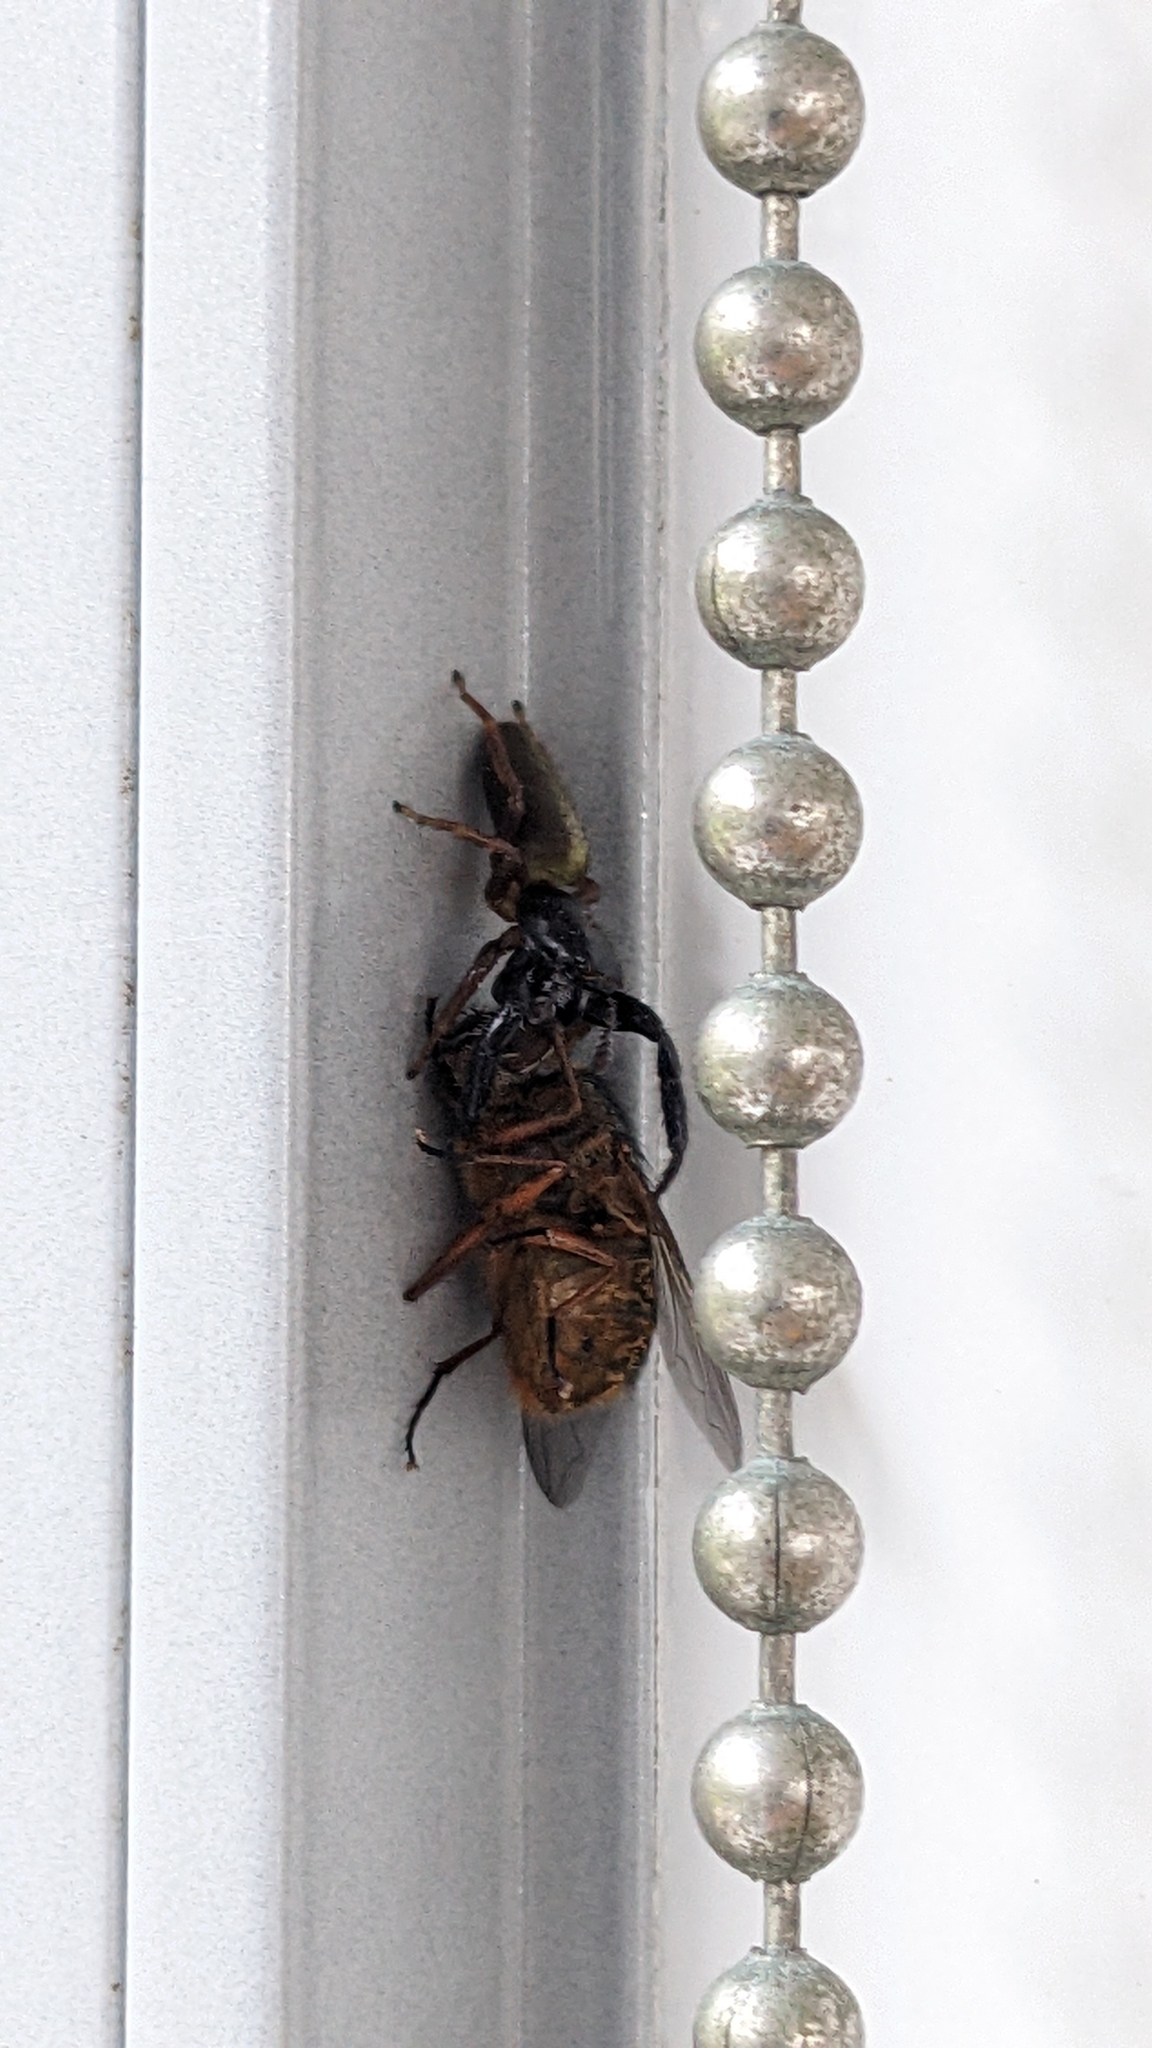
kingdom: Animalia
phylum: Arthropoda
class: Arachnida
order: Araneae
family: Salticidae
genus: Trite
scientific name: Trite planiceps
